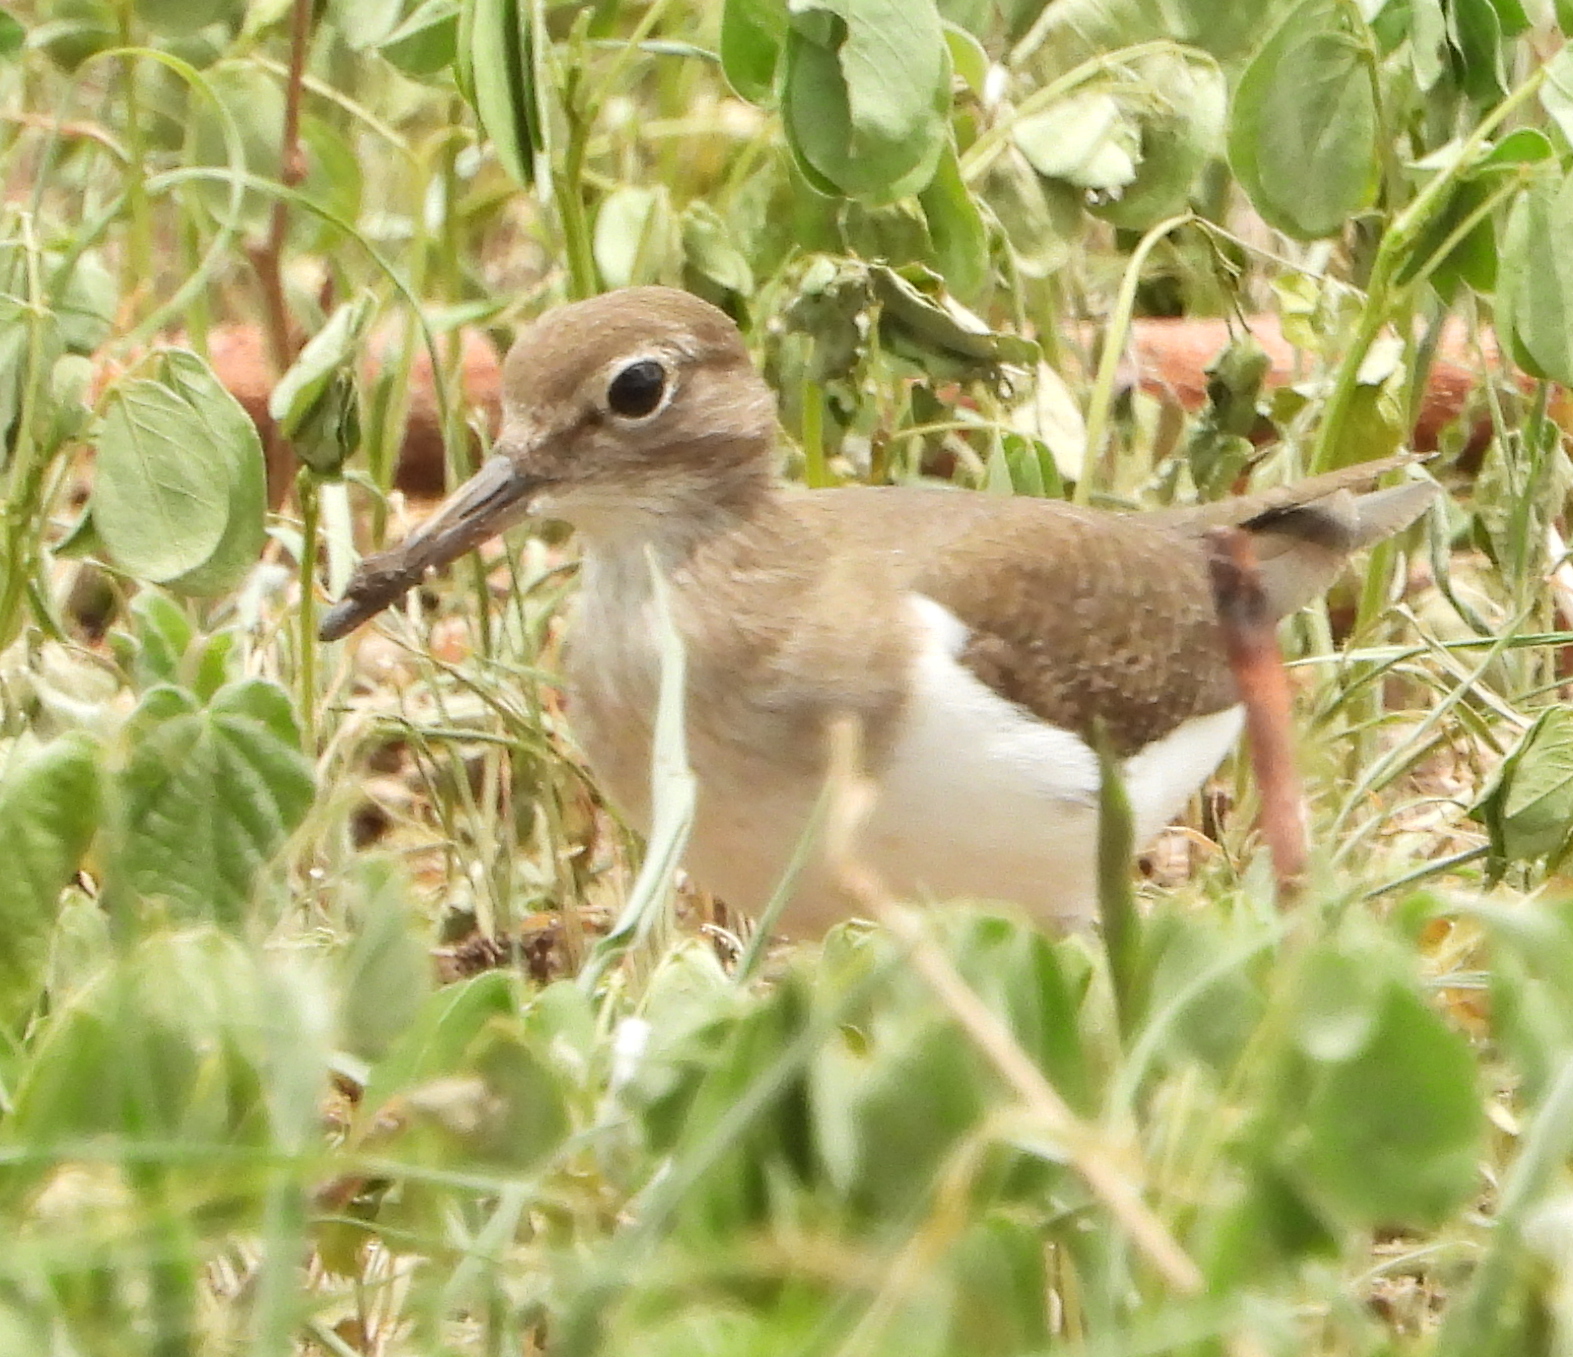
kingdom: Animalia
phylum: Chordata
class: Aves
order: Charadriiformes
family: Scolopacidae
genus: Actitis
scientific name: Actitis hypoleucos
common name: Common sandpiper
